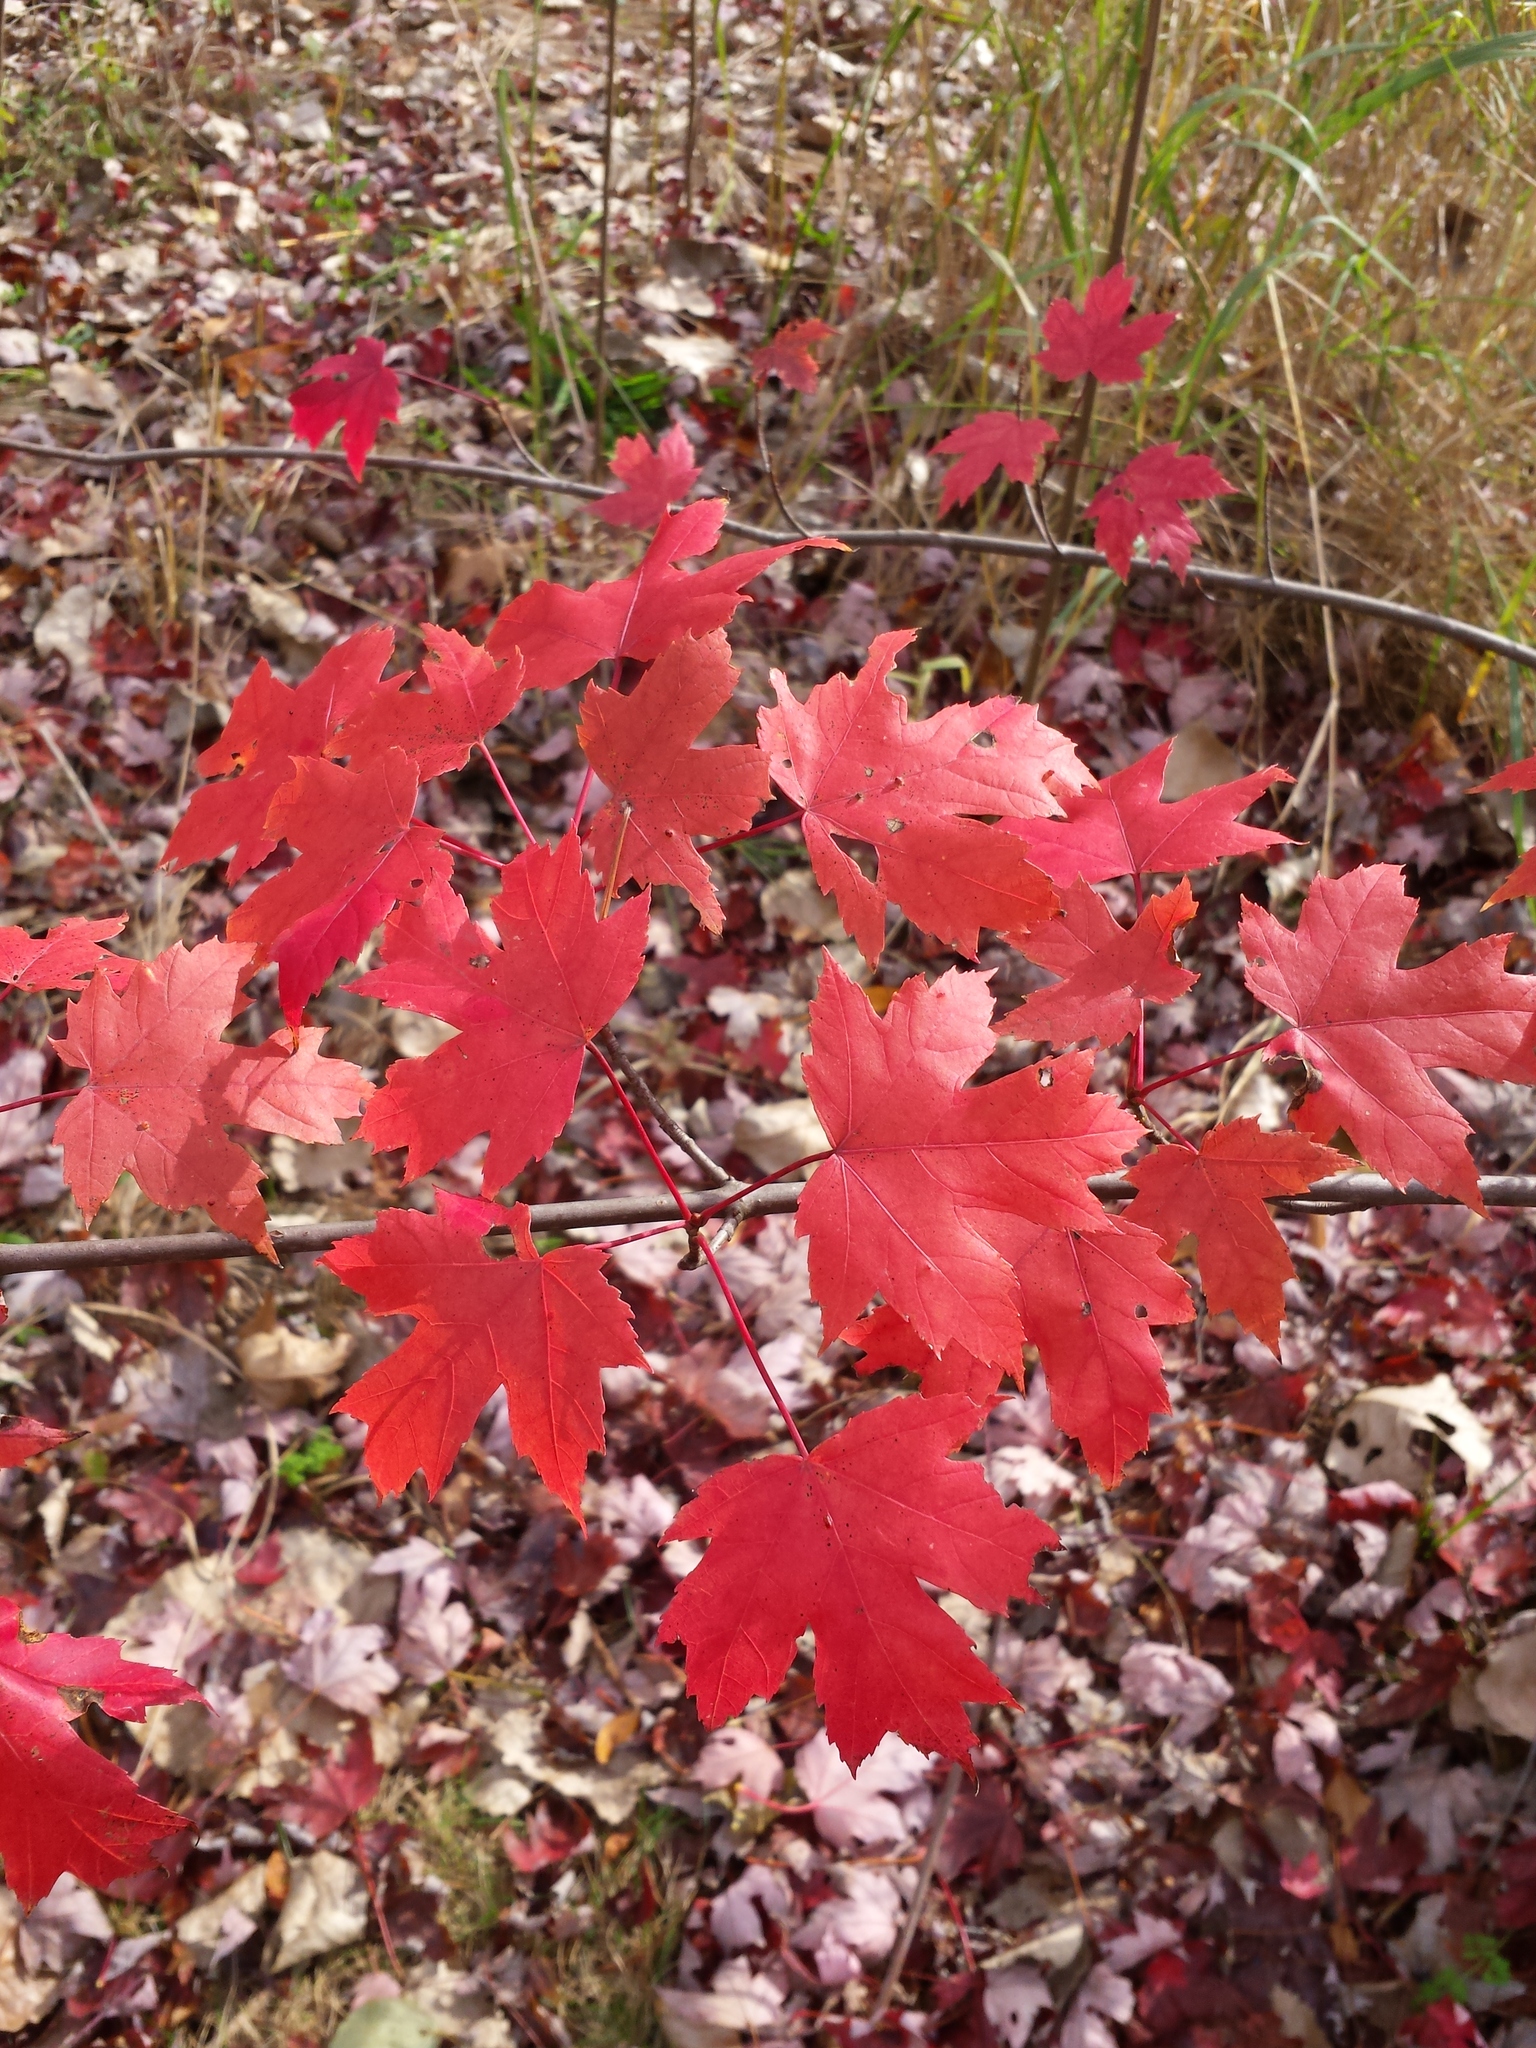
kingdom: Plantae
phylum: Tracheophyta
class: Magnoliopsida
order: Sapindales
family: Sapindaceae
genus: Acer
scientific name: Acer saccharum
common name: Sugar maple
